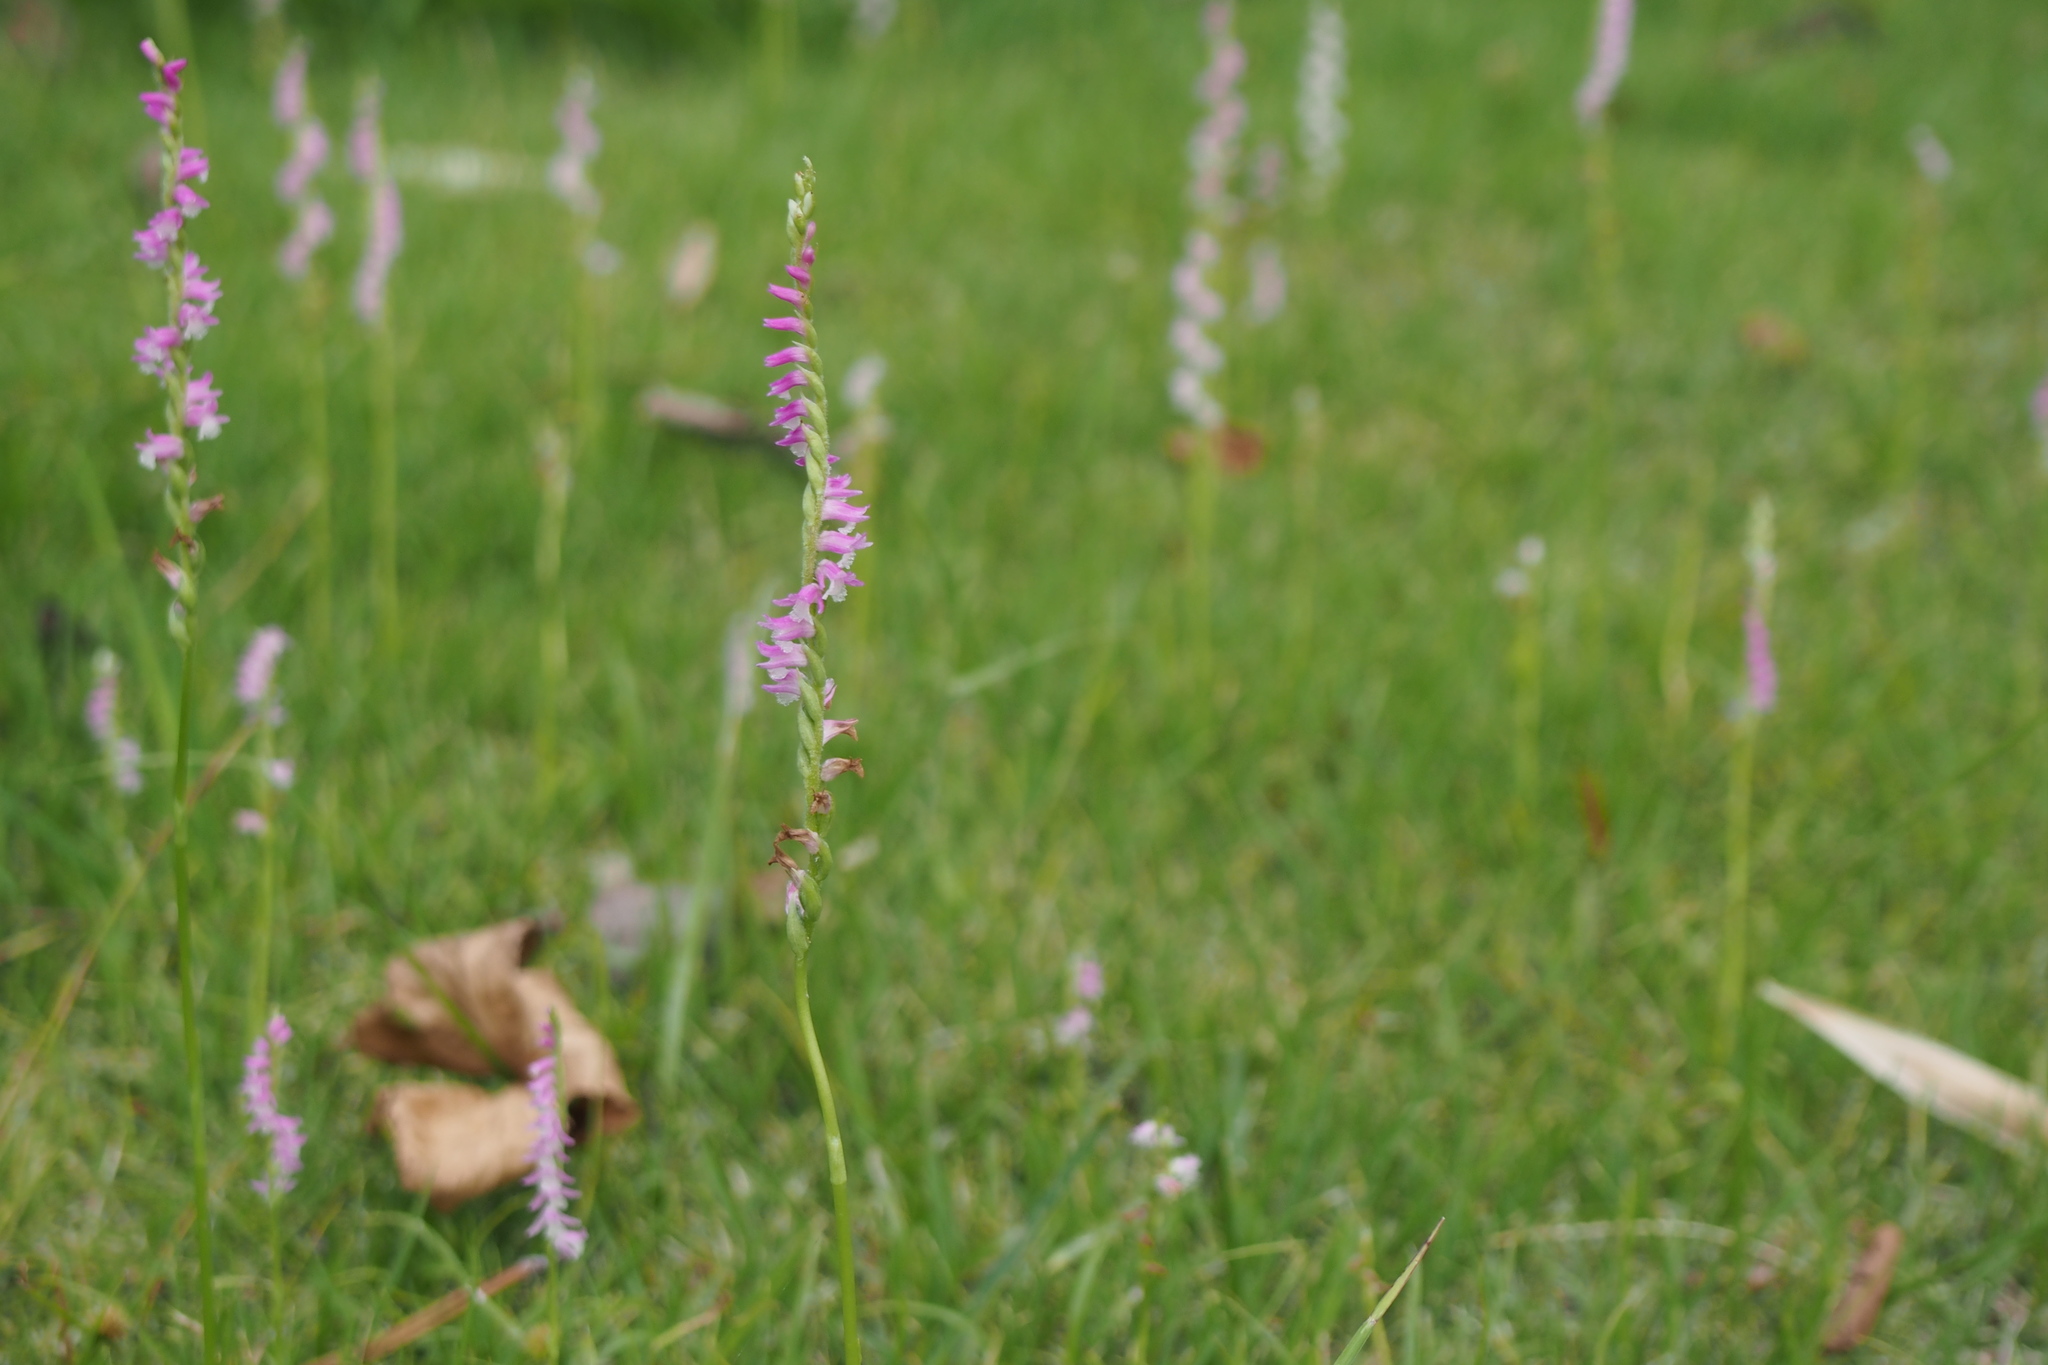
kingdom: Plantae
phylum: Tracheophyta
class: Liliopsida
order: Asparagales
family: Orchidaceae
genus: Spiranthes
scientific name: Spiranthes australis
